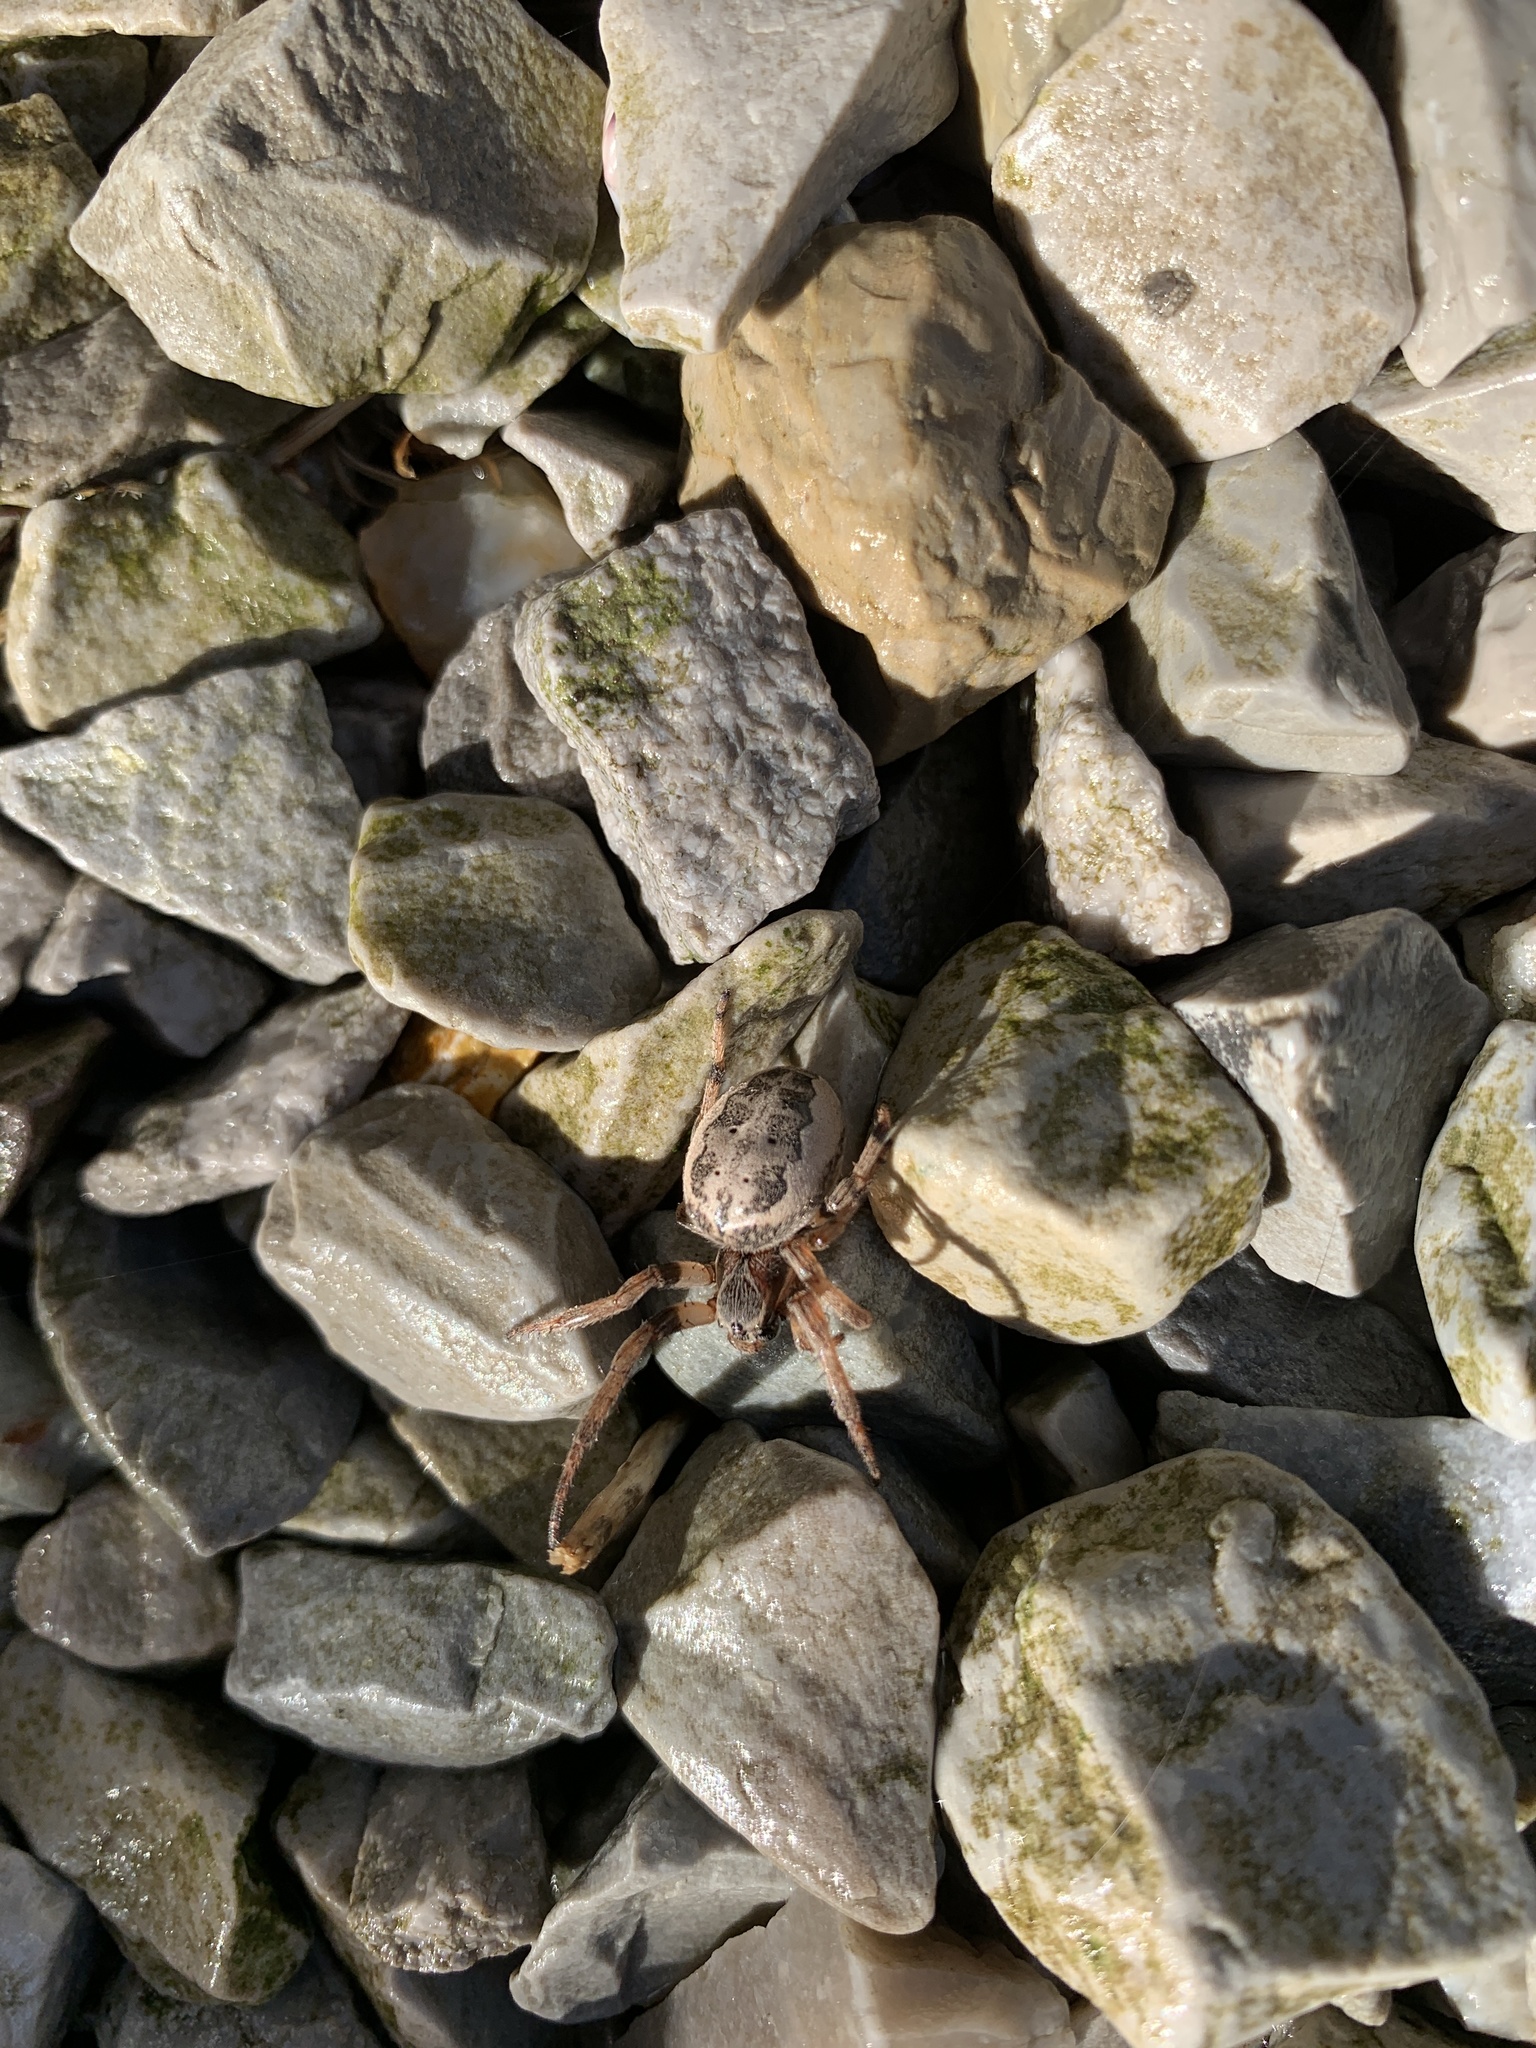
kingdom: Animalia
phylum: Arthropoda
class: Arachnida
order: Araneae
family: Araneidae
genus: Larinioides
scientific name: Larinioides cornutus
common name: Furrow orbweaver
